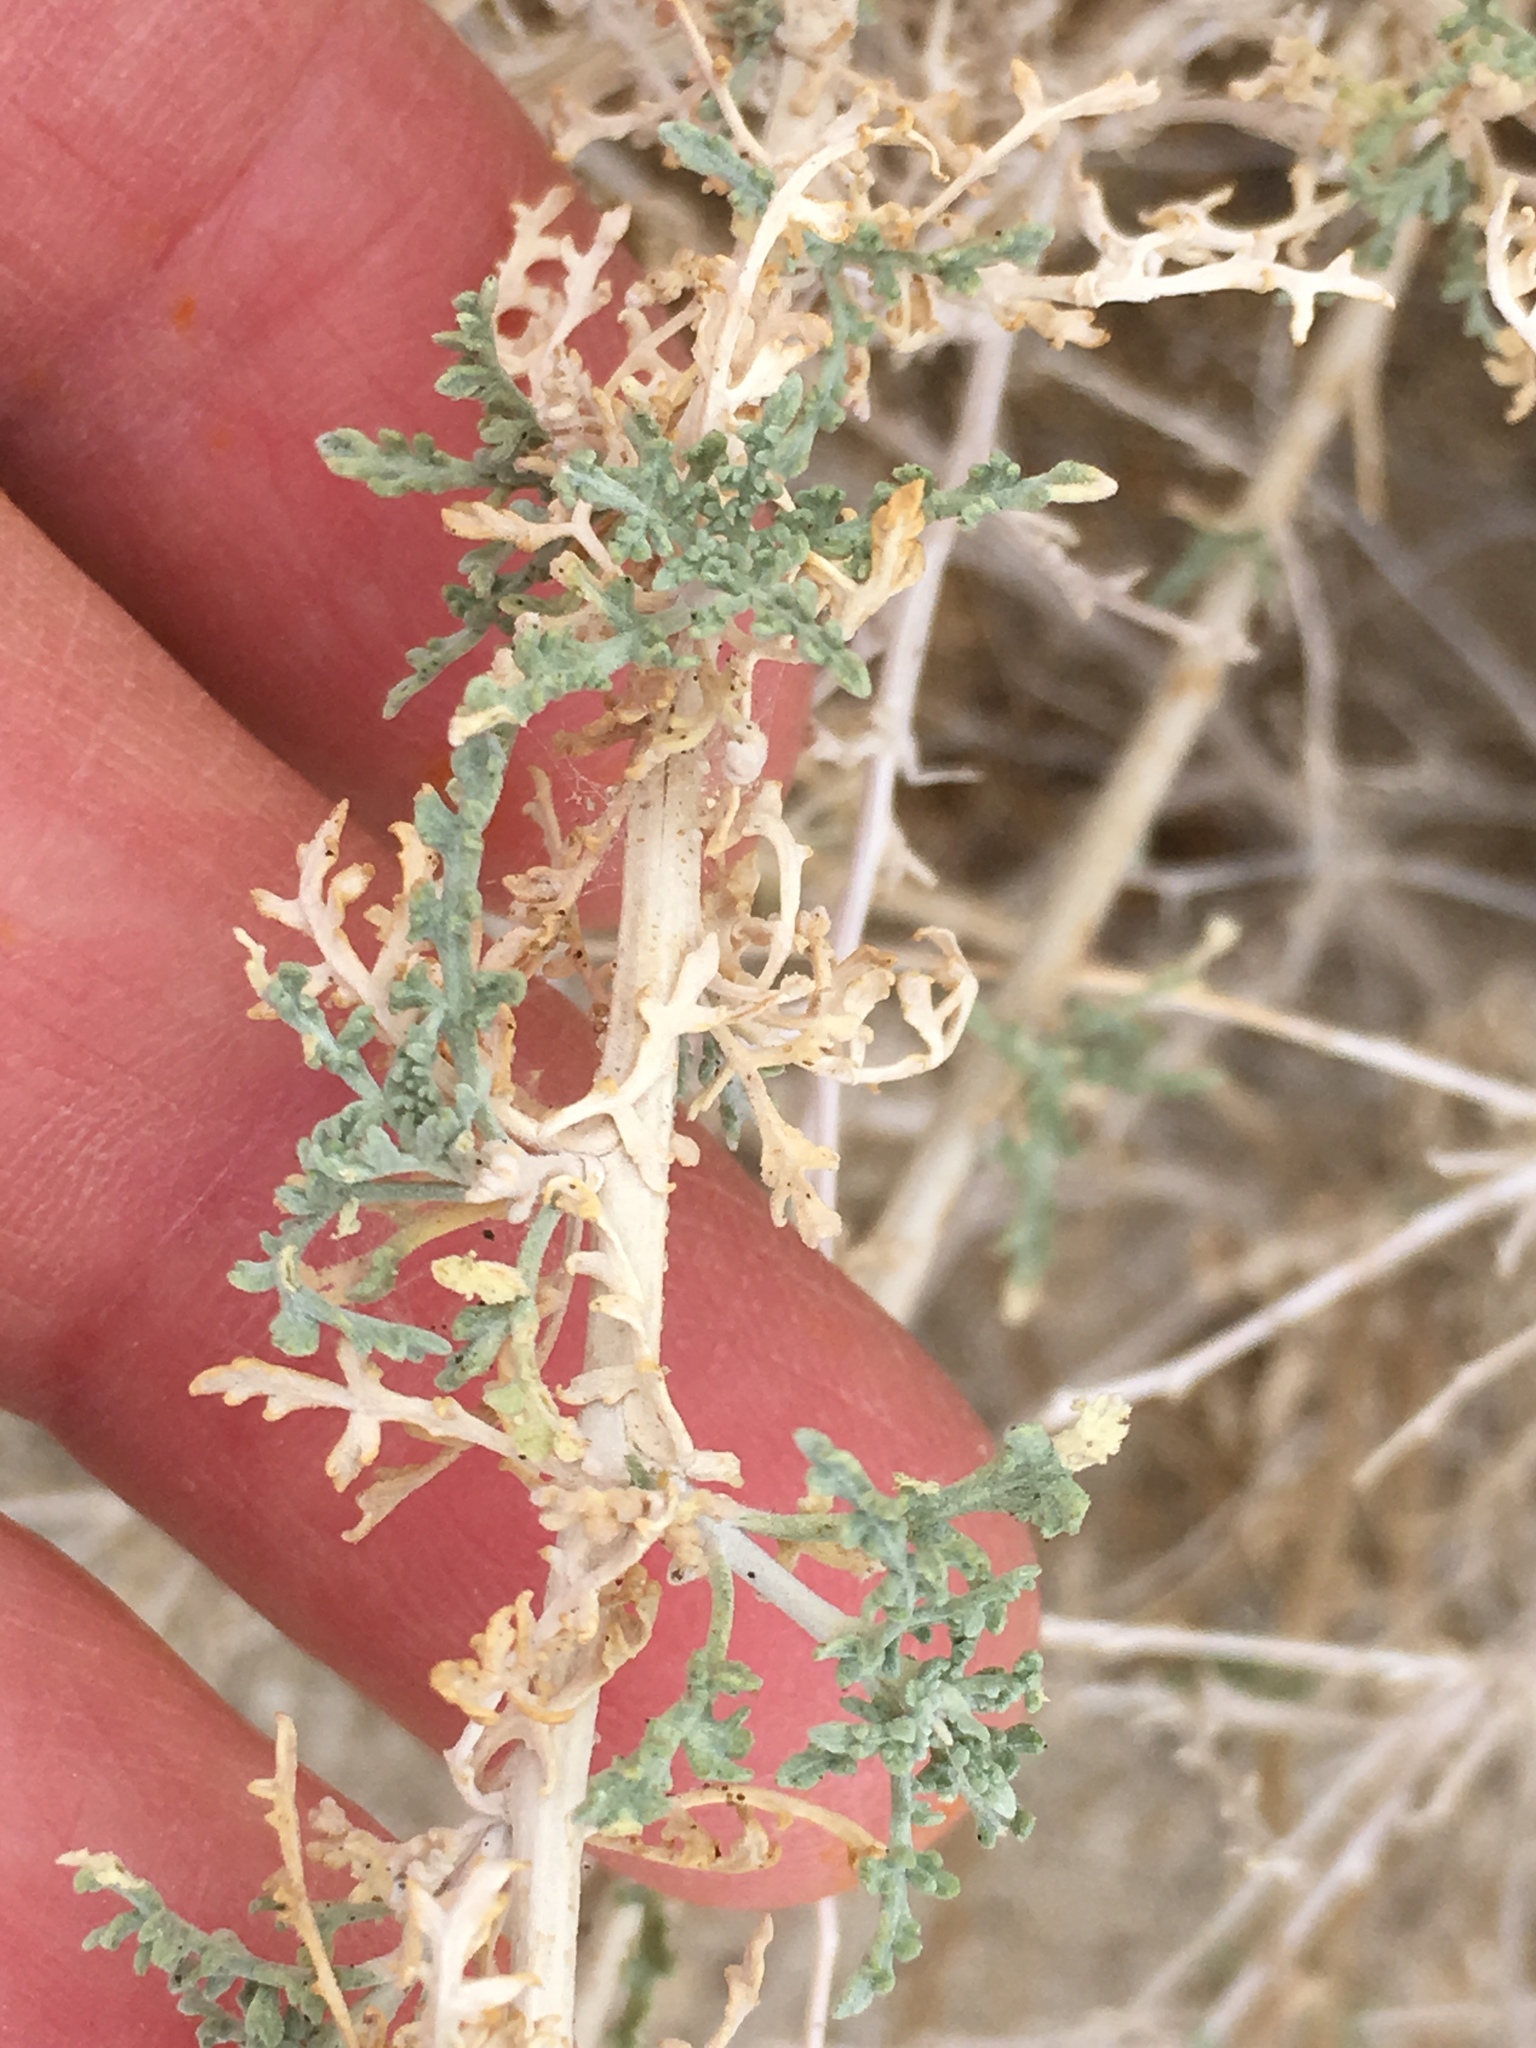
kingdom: Plantae
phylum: Tracheophyta
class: Magnoliopsida
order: Asterales
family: Asteraceae
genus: Ambrosia
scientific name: Ambrosia dumosa
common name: Bur-sage
